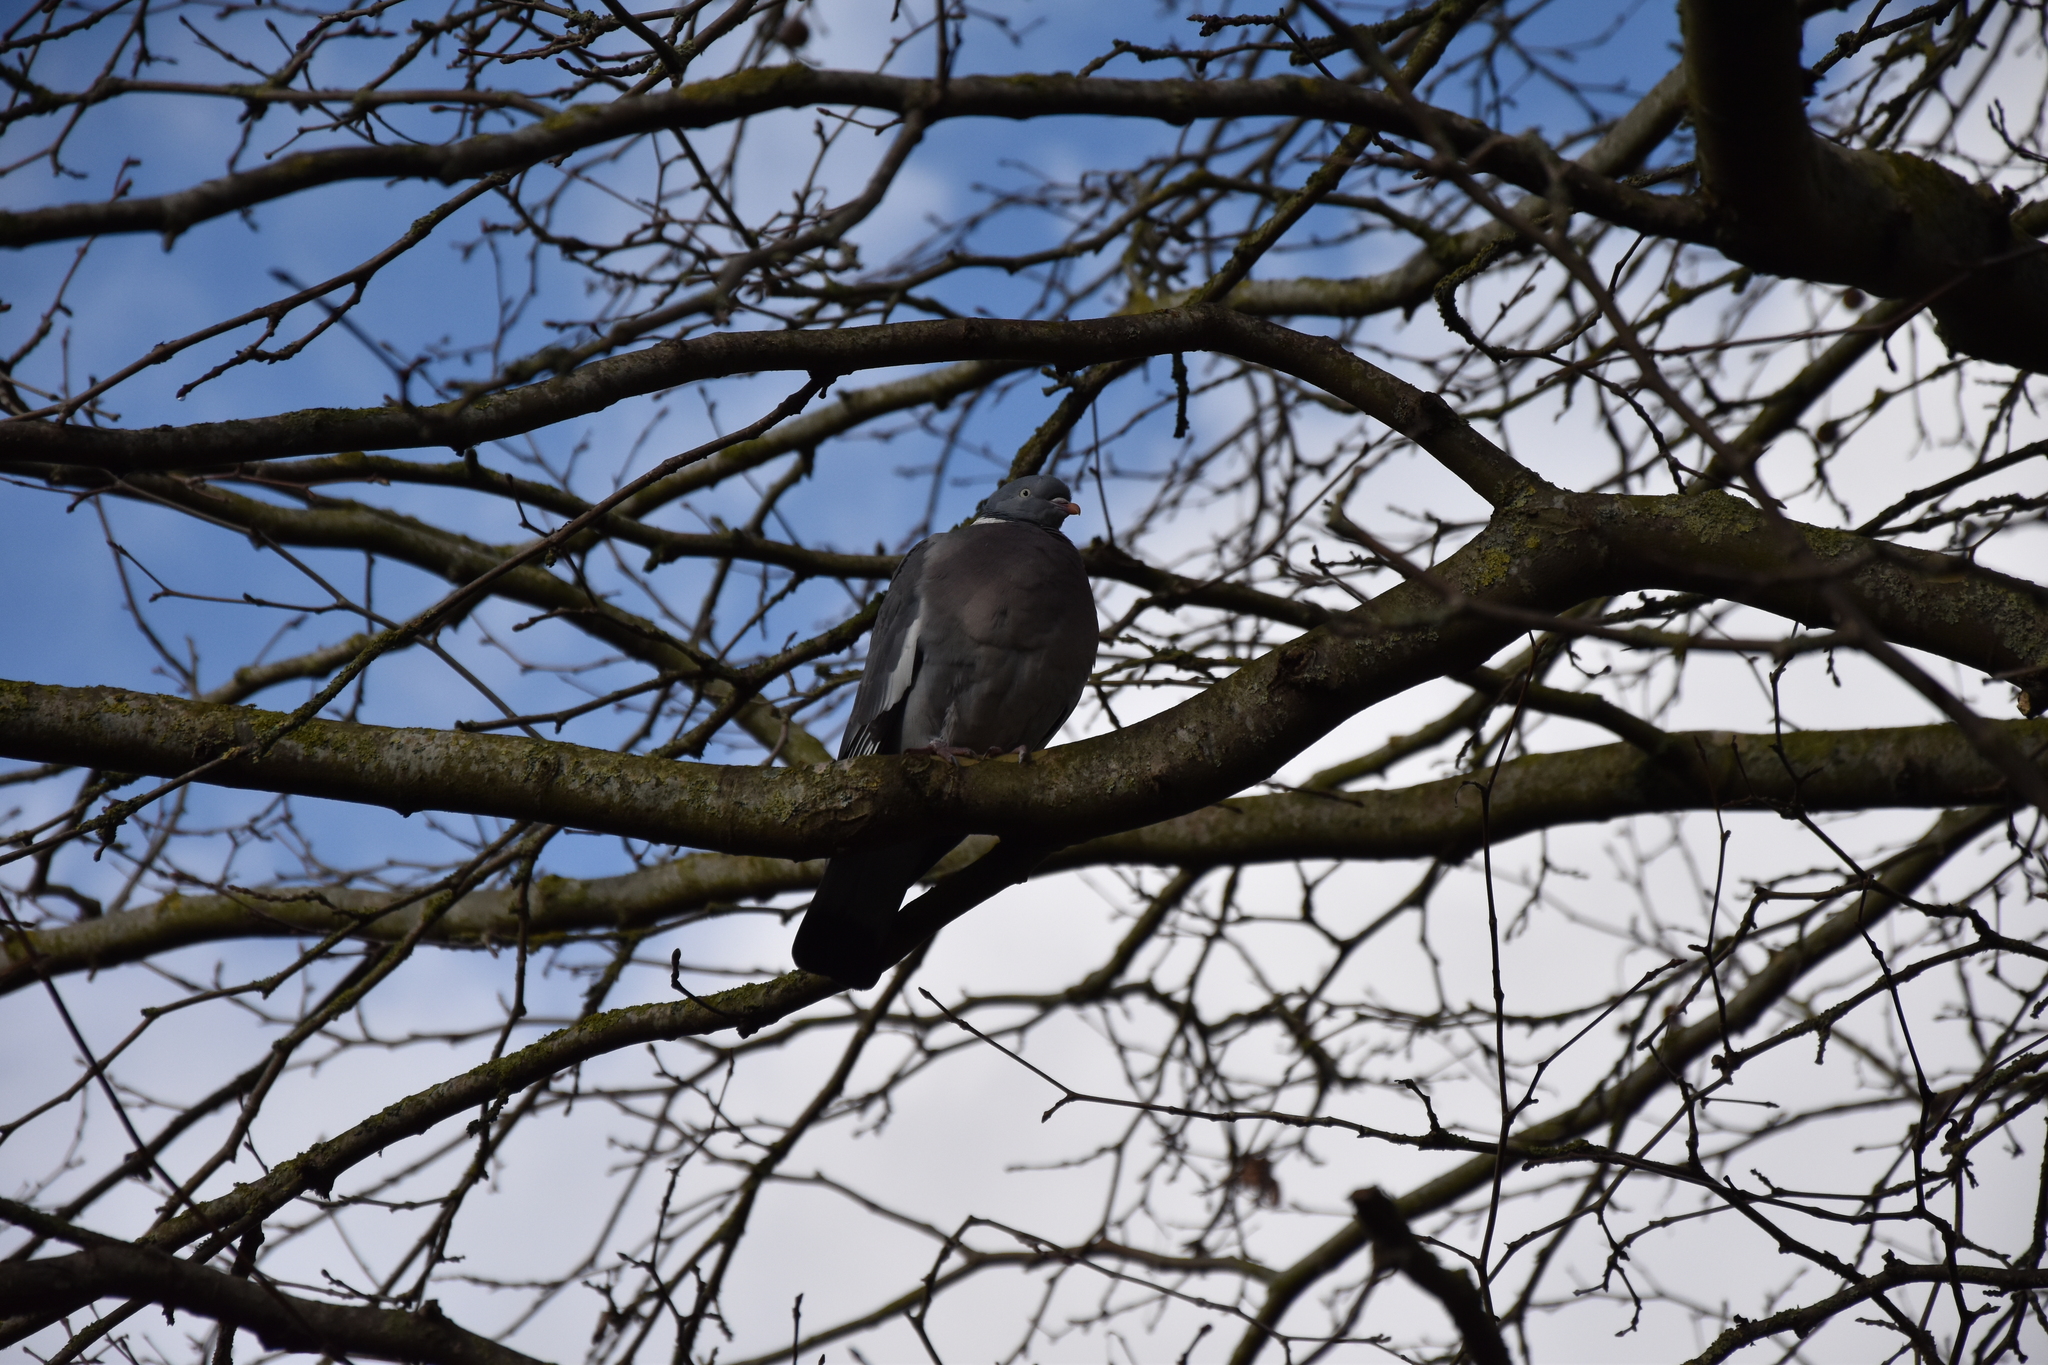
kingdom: Animalia
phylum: Chordata
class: Aves
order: Columbiformes
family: Columbidae
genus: Columba
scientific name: Columba palumbus
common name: Common wood pigeon
